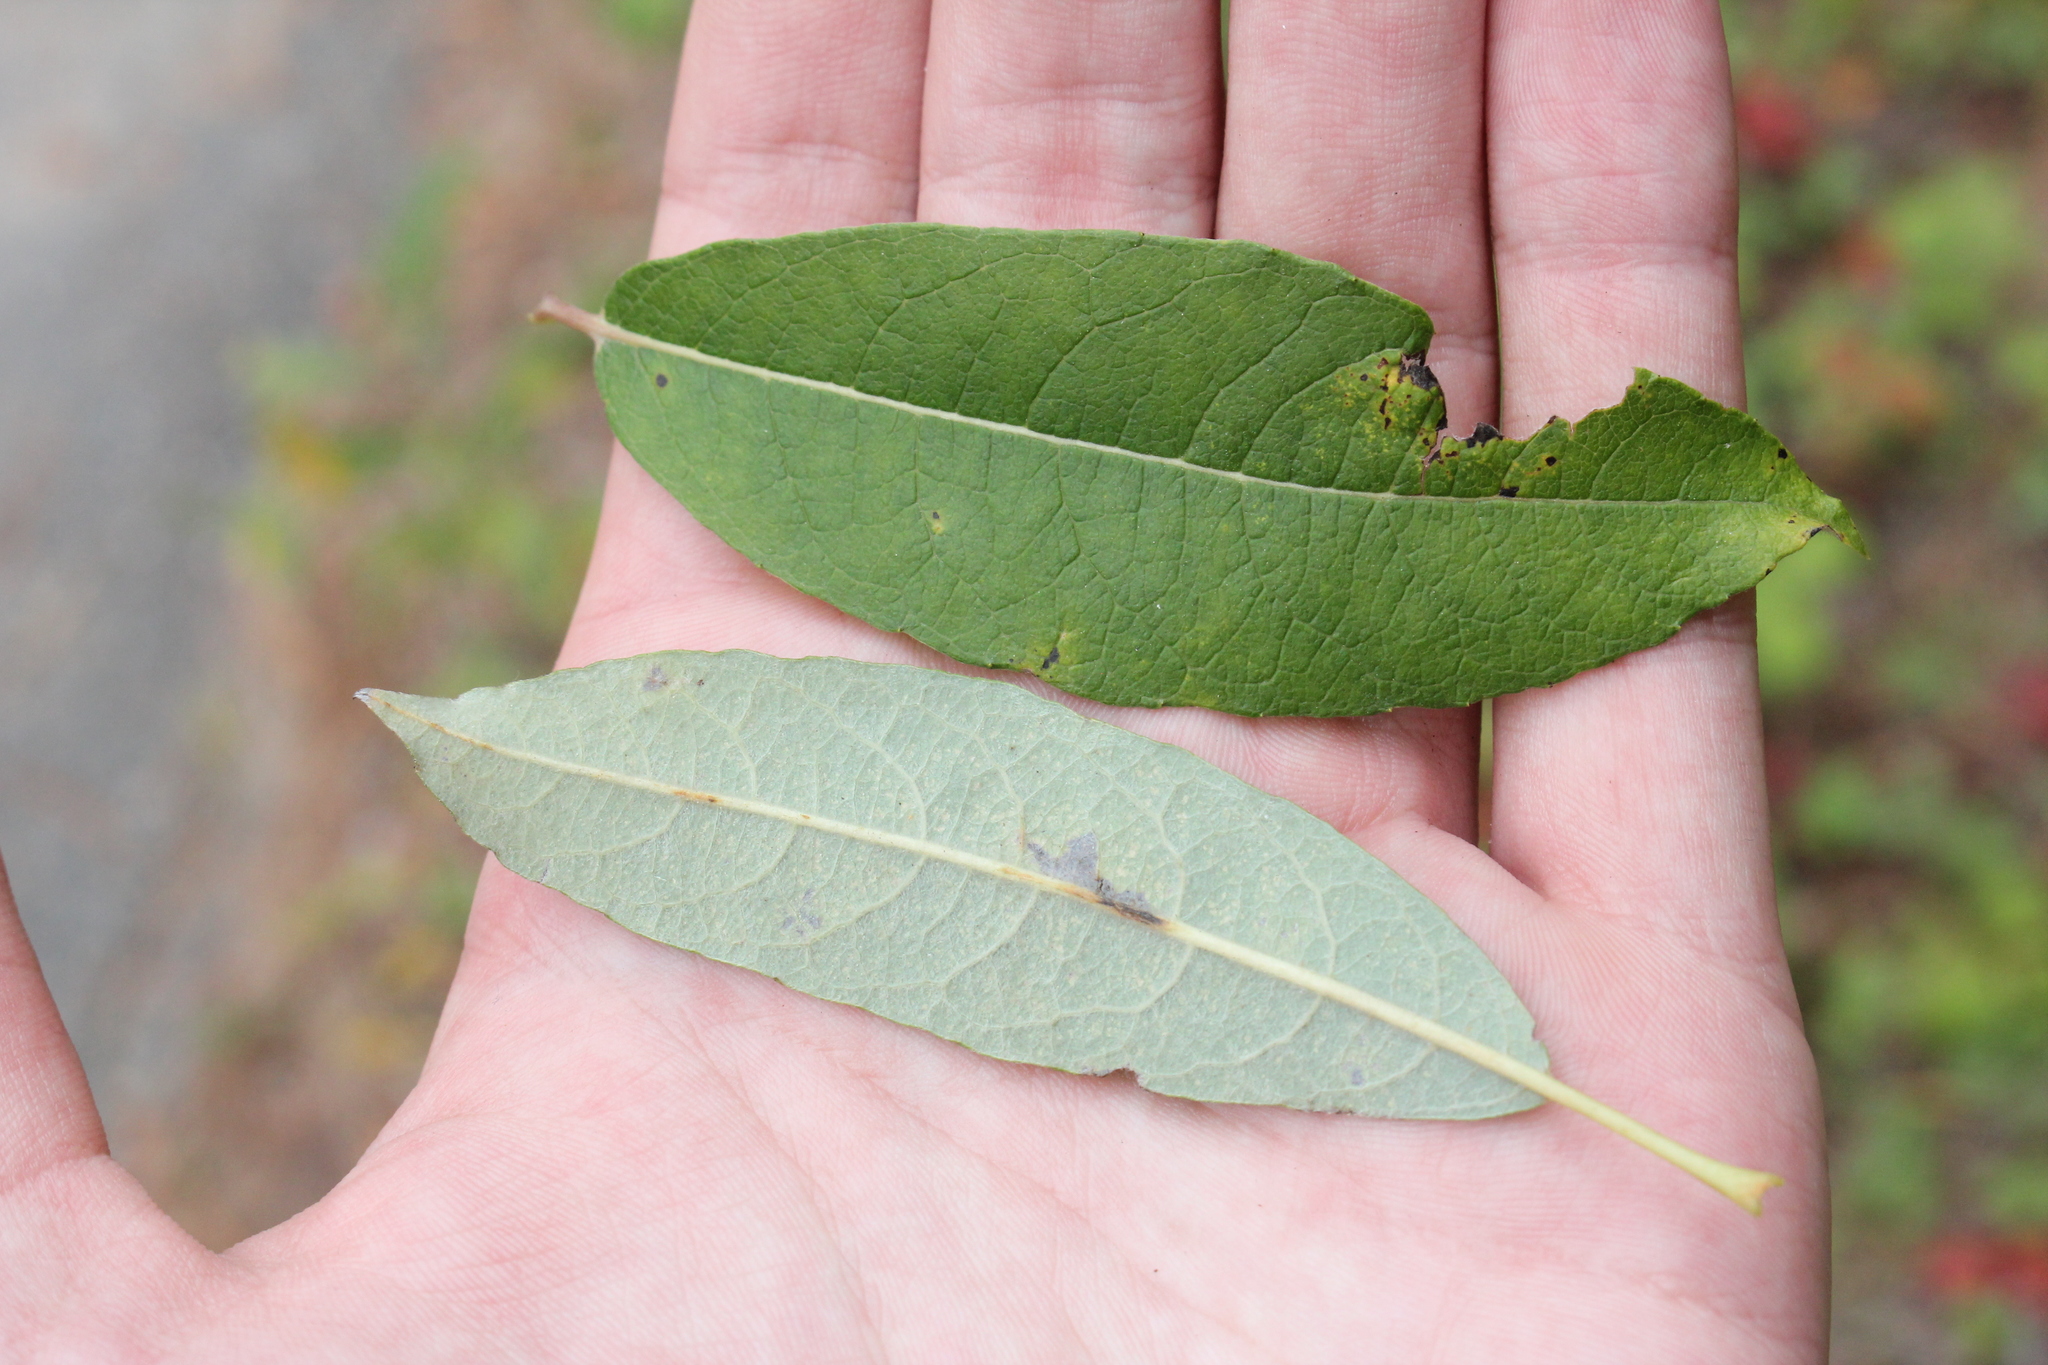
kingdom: Plantae
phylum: Tracheophyta
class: Magnoliopsida
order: Malpighiales
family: Salicaceae
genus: Salix
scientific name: Salix humilis
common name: Prairie willow
